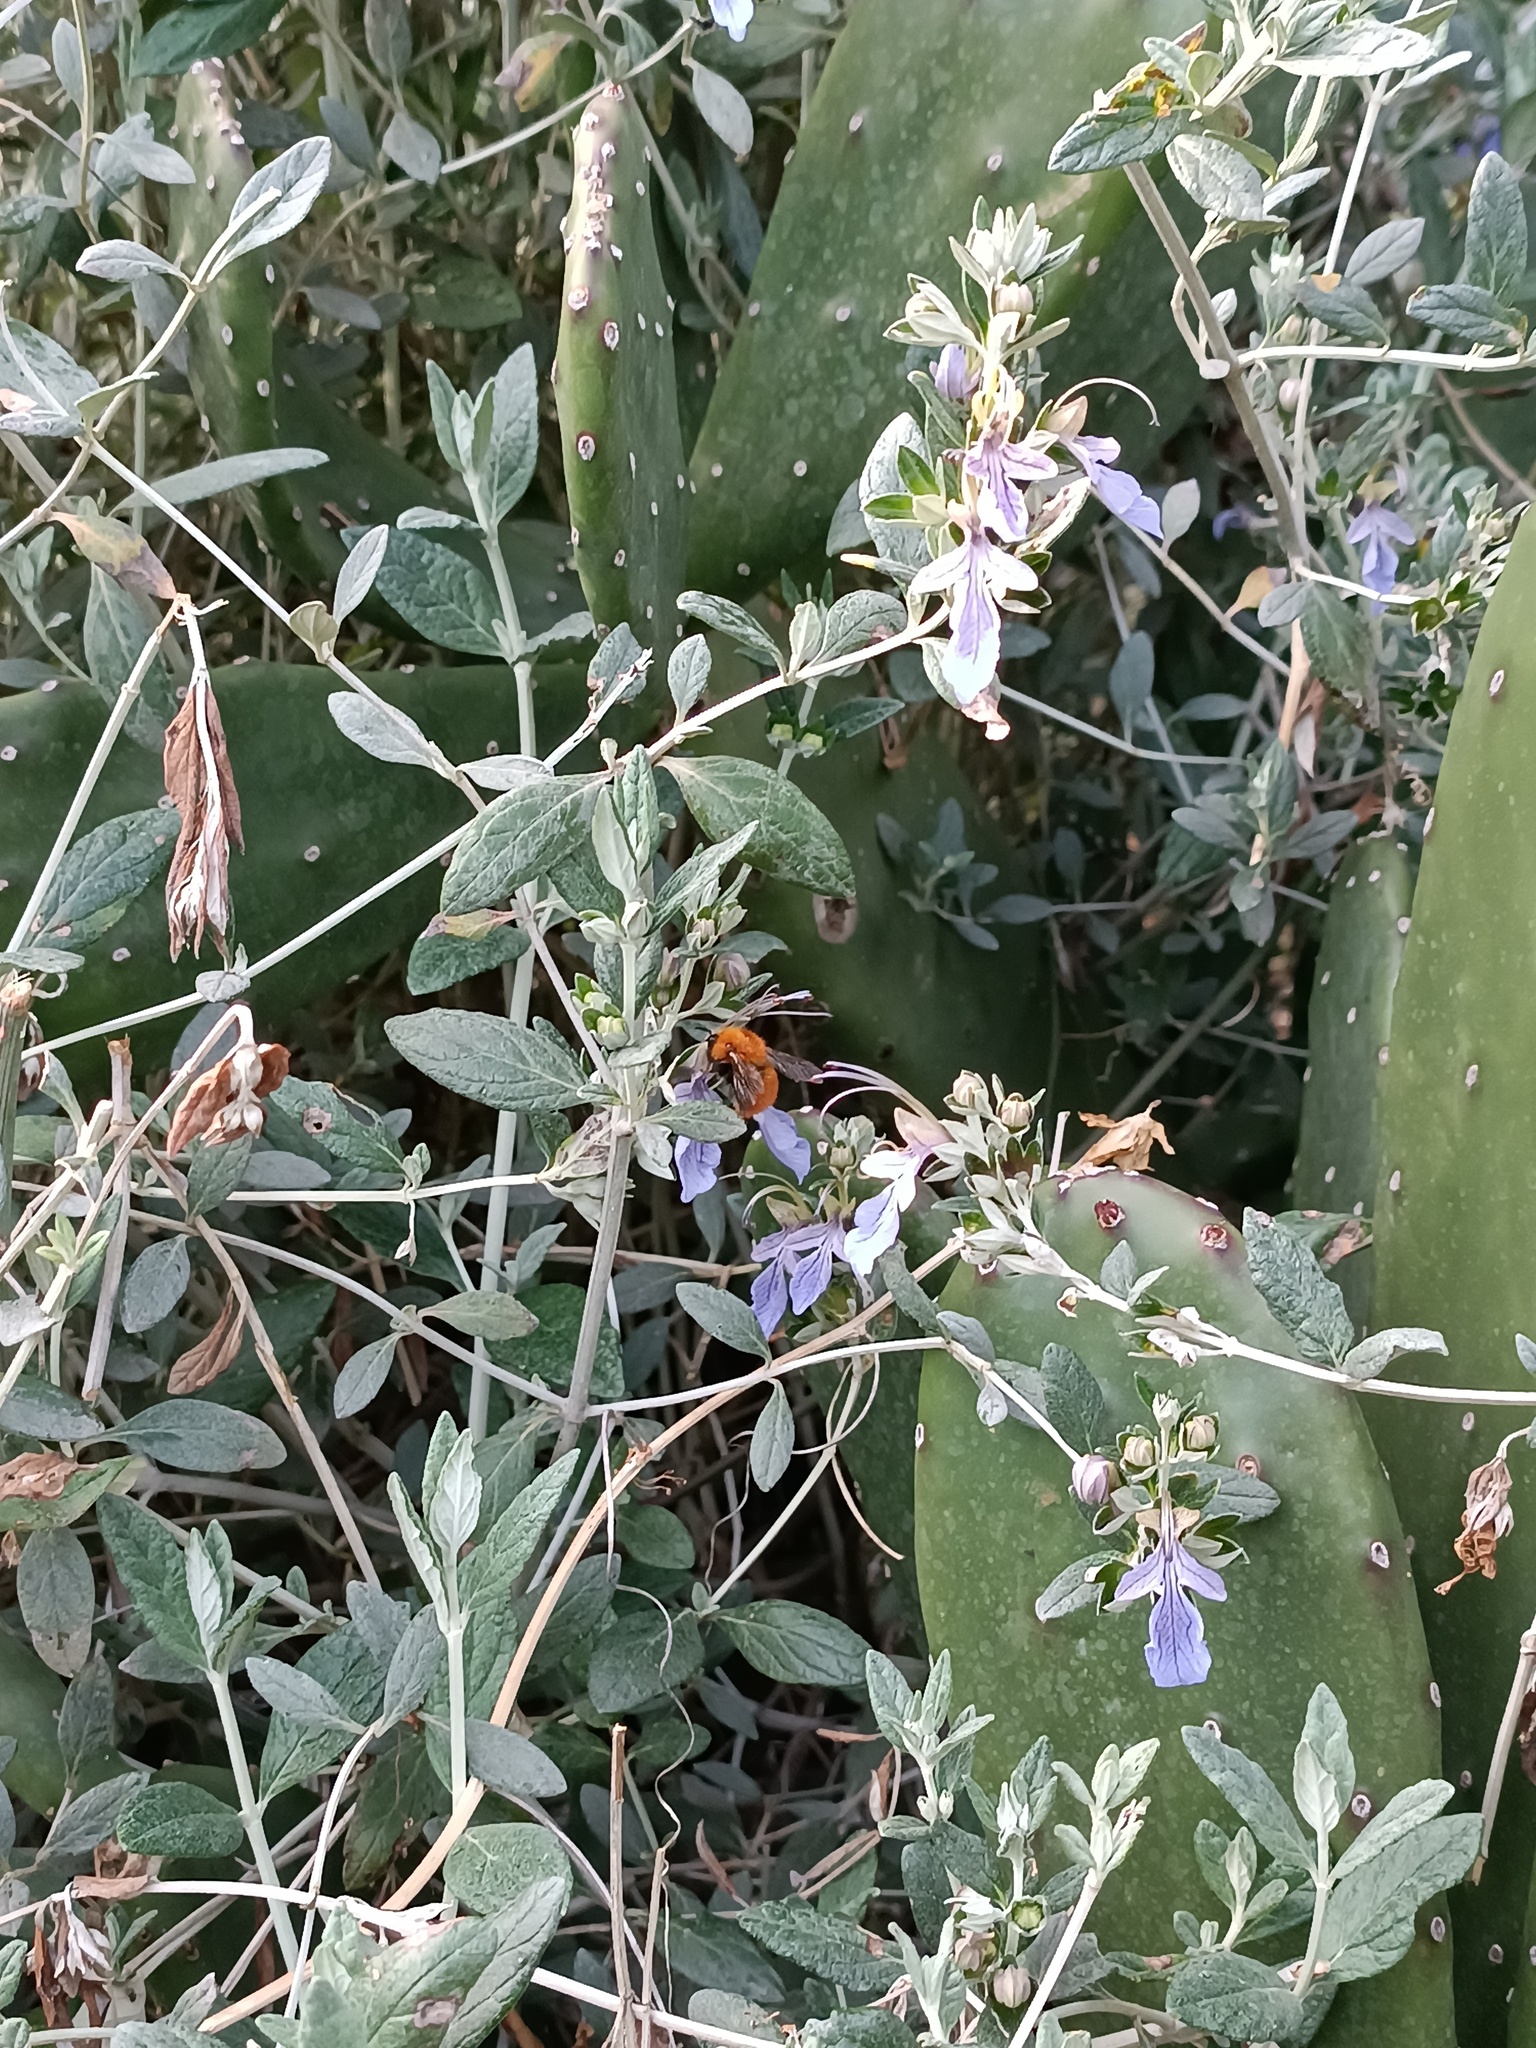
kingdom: Animalia
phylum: Arthropoda
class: Insecta
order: Hymenoptera
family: Apidae
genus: Bombus
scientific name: Bombus pascuorum
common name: Common carder bee
